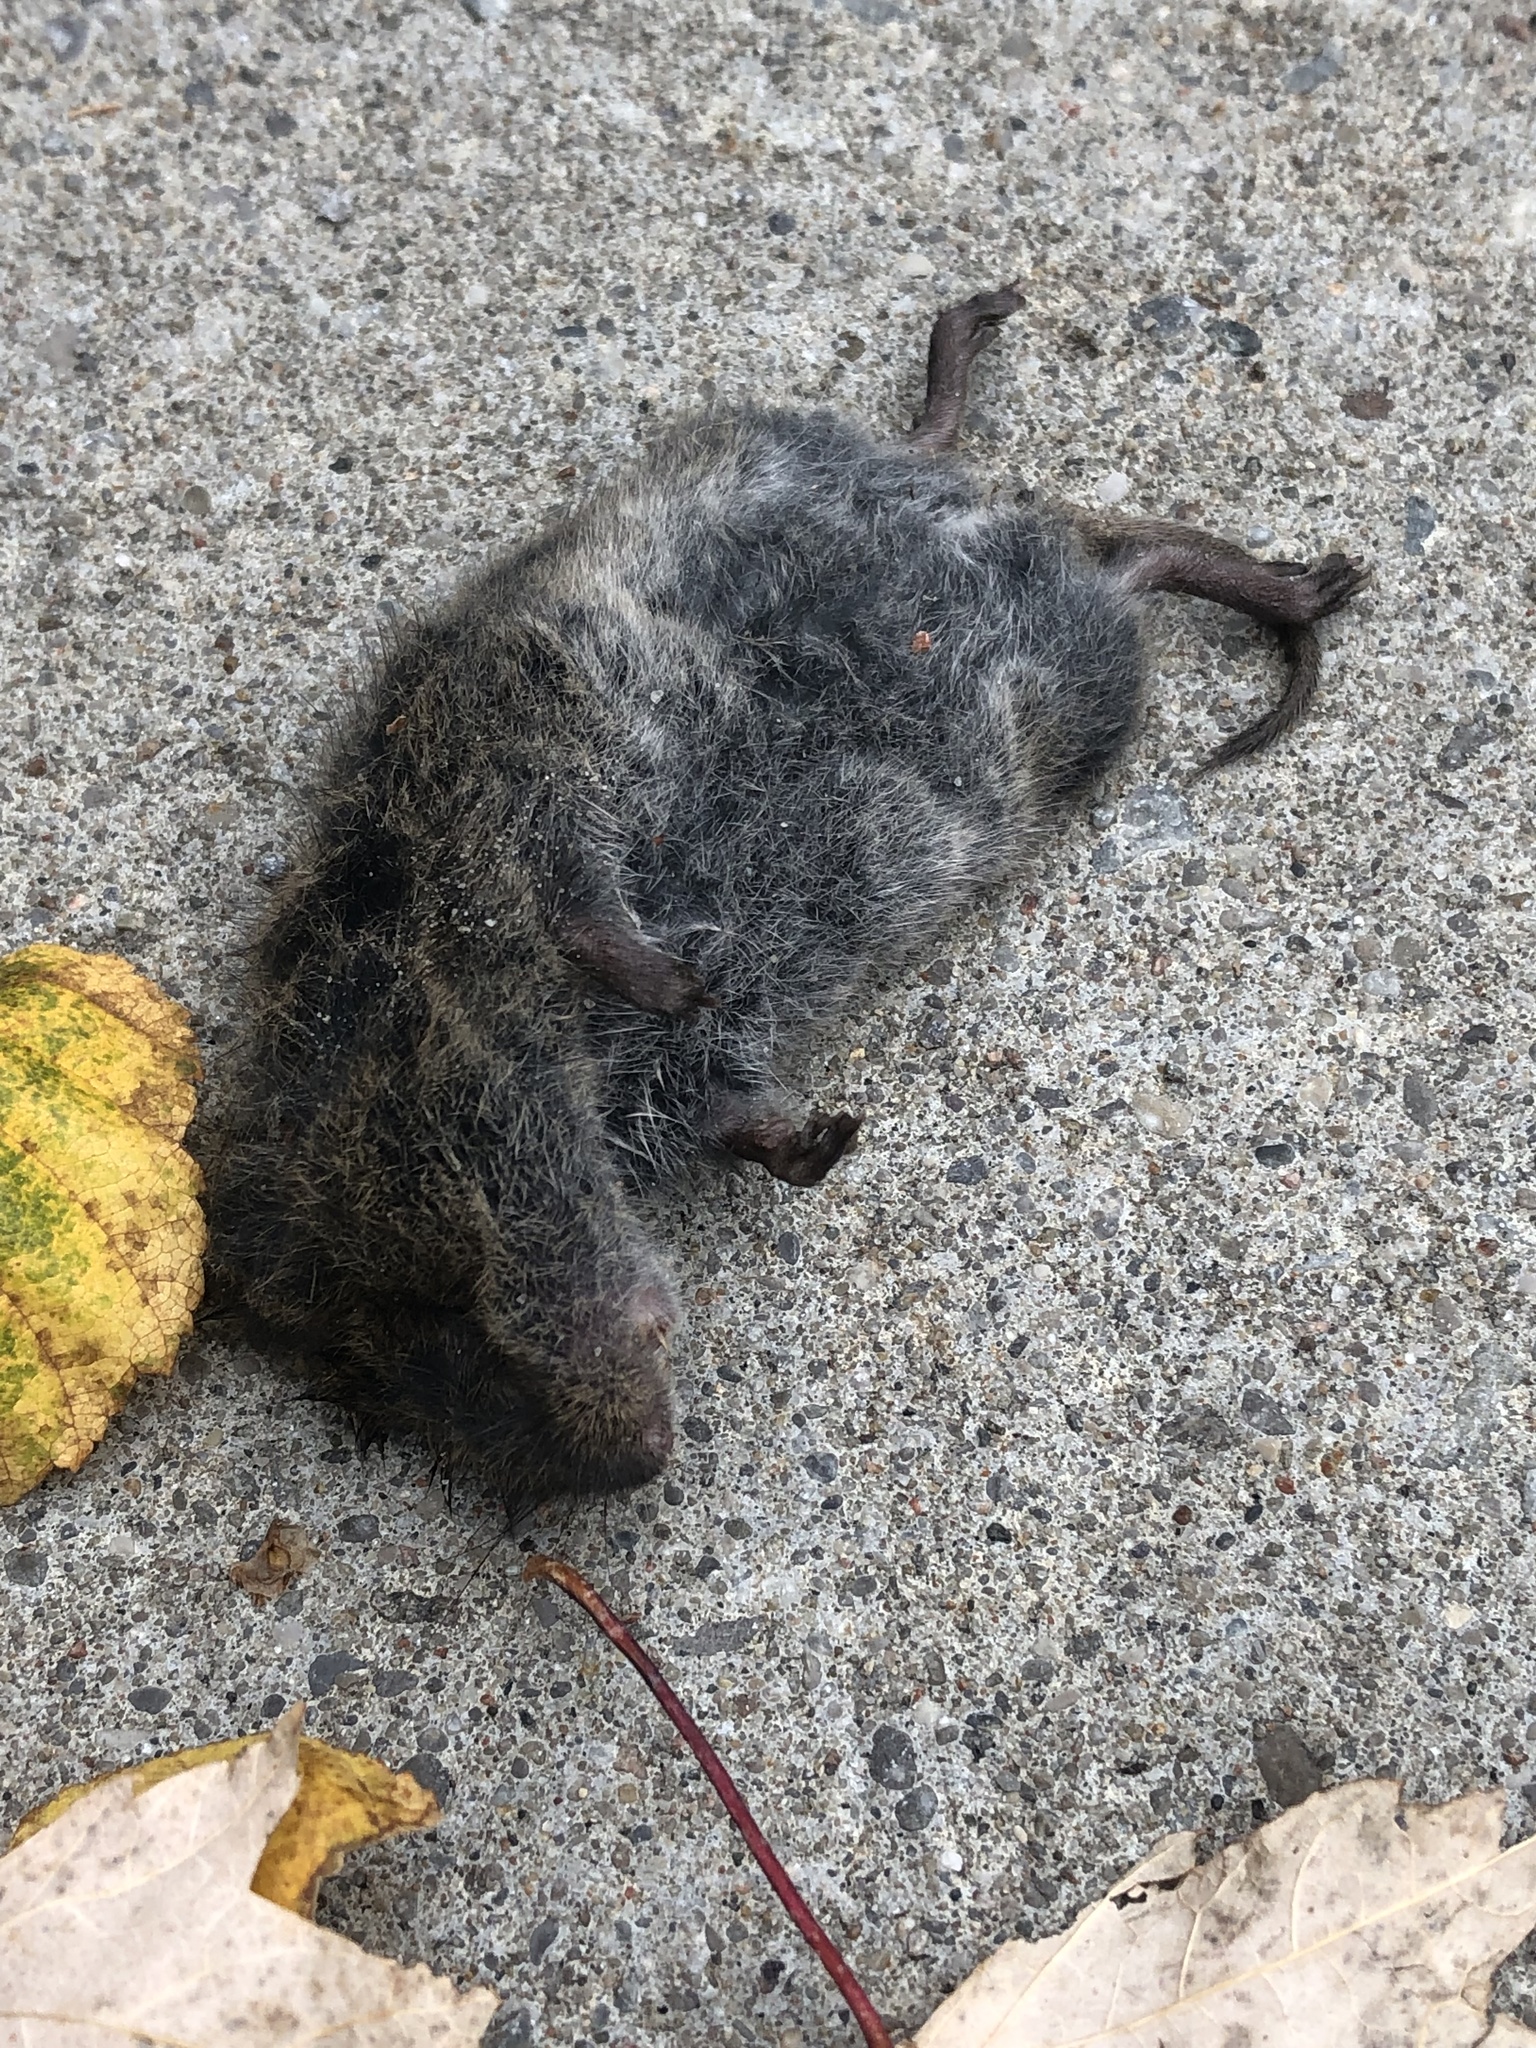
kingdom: Animalia
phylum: Chordata
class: Mammalia
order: Rodentia
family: Cricetidae
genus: Microtus
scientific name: Microtus pennsylvanicus
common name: Meadow vole
